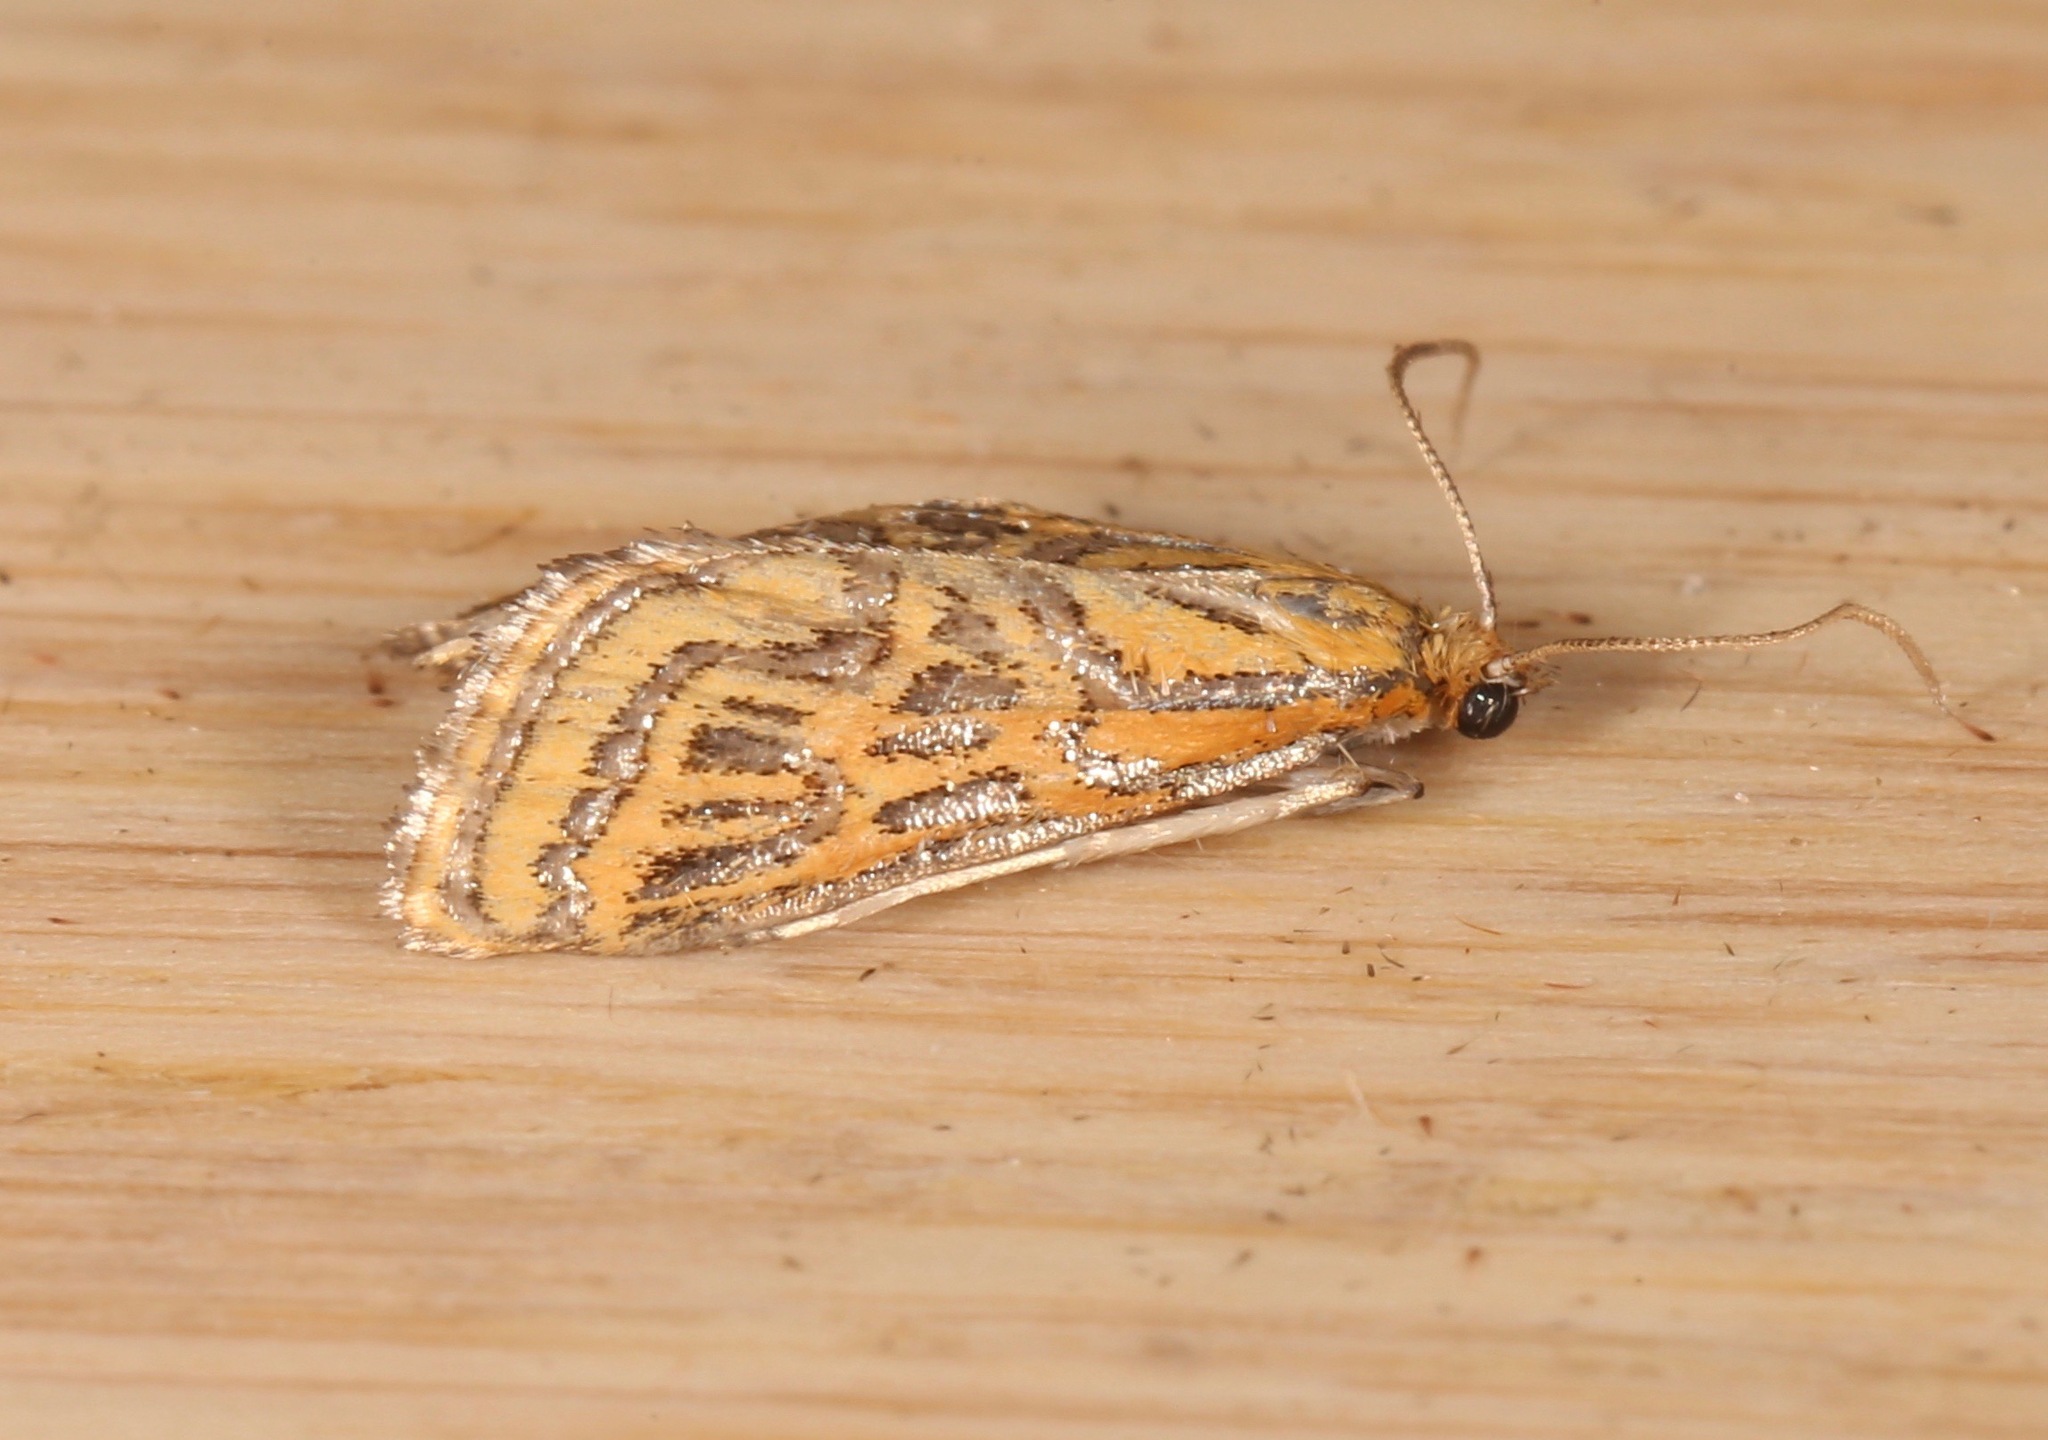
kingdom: Animalia
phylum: Arthropoda
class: Insecta
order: Lepidoptera
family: Crambidae
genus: Daulia
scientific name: Daulia magdalena
